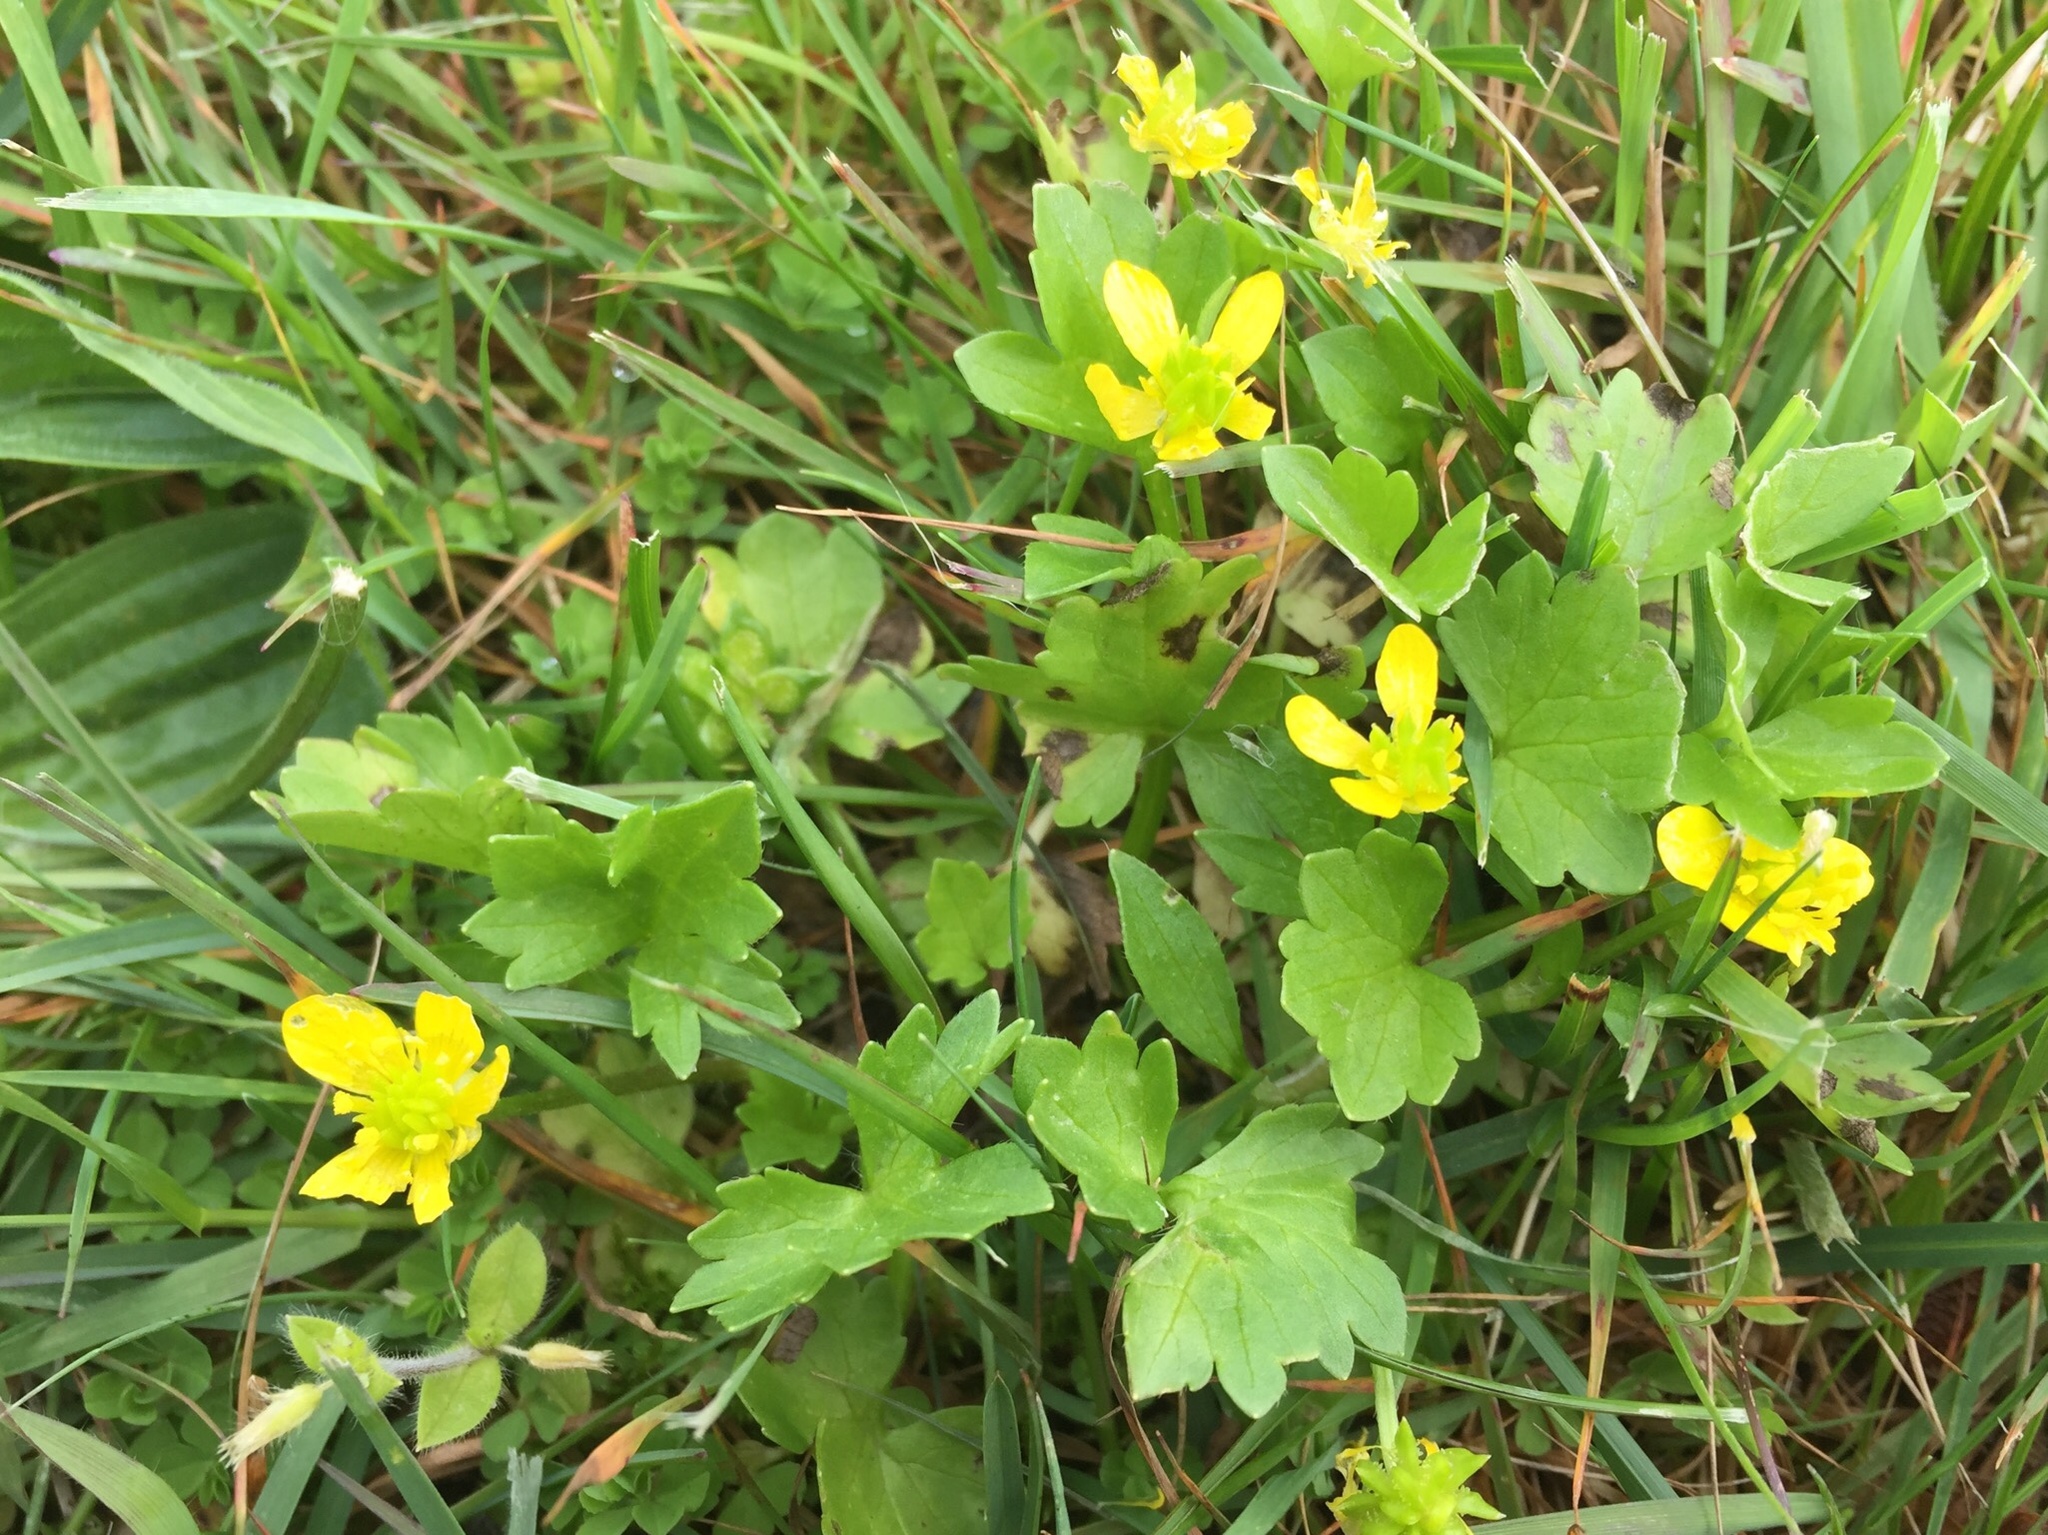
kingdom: Plantae
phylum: Tracheophyta
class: Magnoliopsida
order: Ranunculales
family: Ranunculaceae
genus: Ranunculus
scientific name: Ranunculus muricatus
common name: Rough-fruited buttercup
